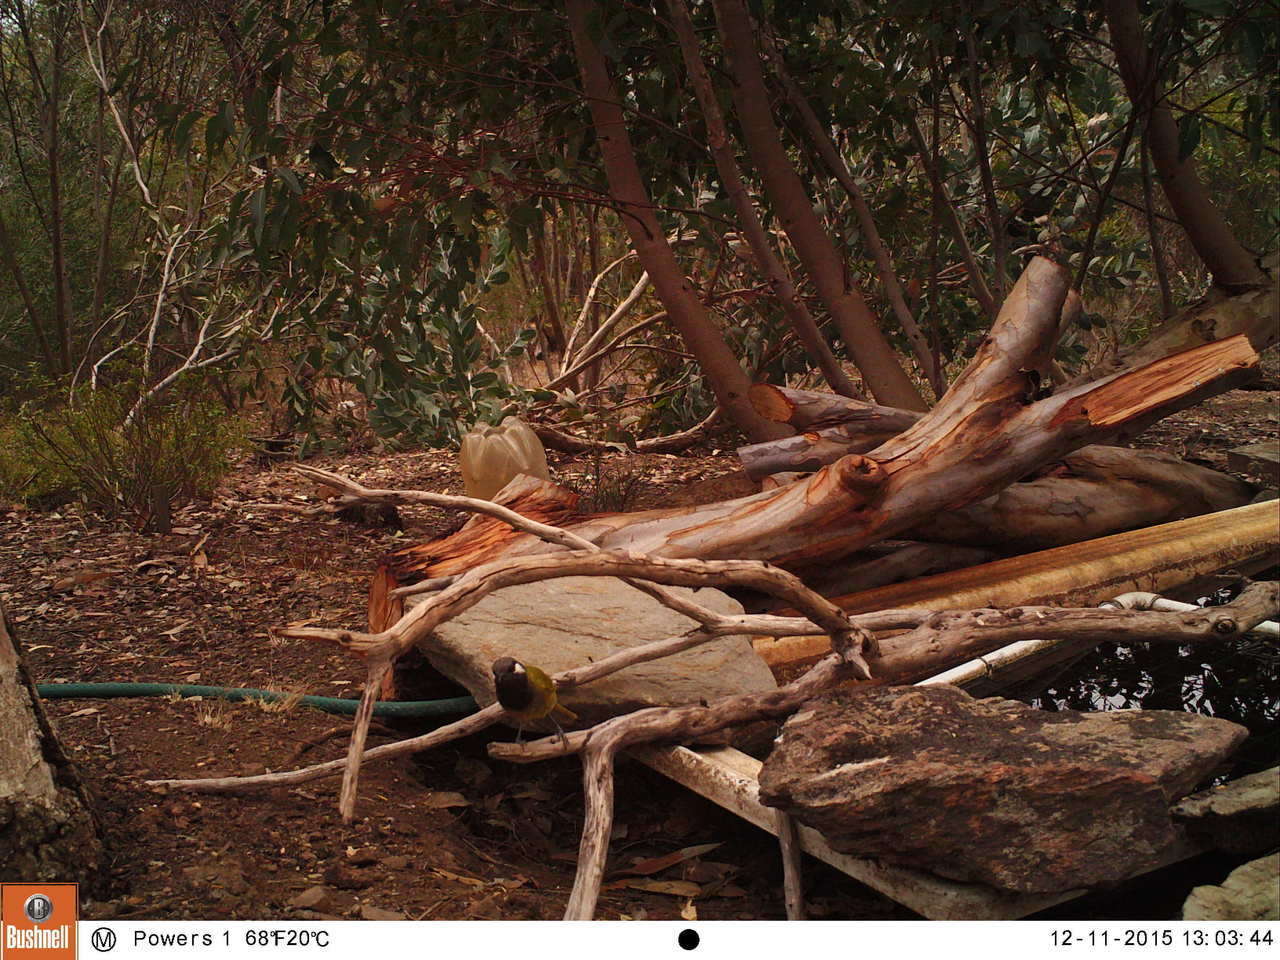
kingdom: Animalia
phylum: Chordata
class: Aves
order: Passeriformes
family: Meliphagidae
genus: Nesoptilotis
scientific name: Nesoptilotis leucotis
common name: White-eared honeyeater
